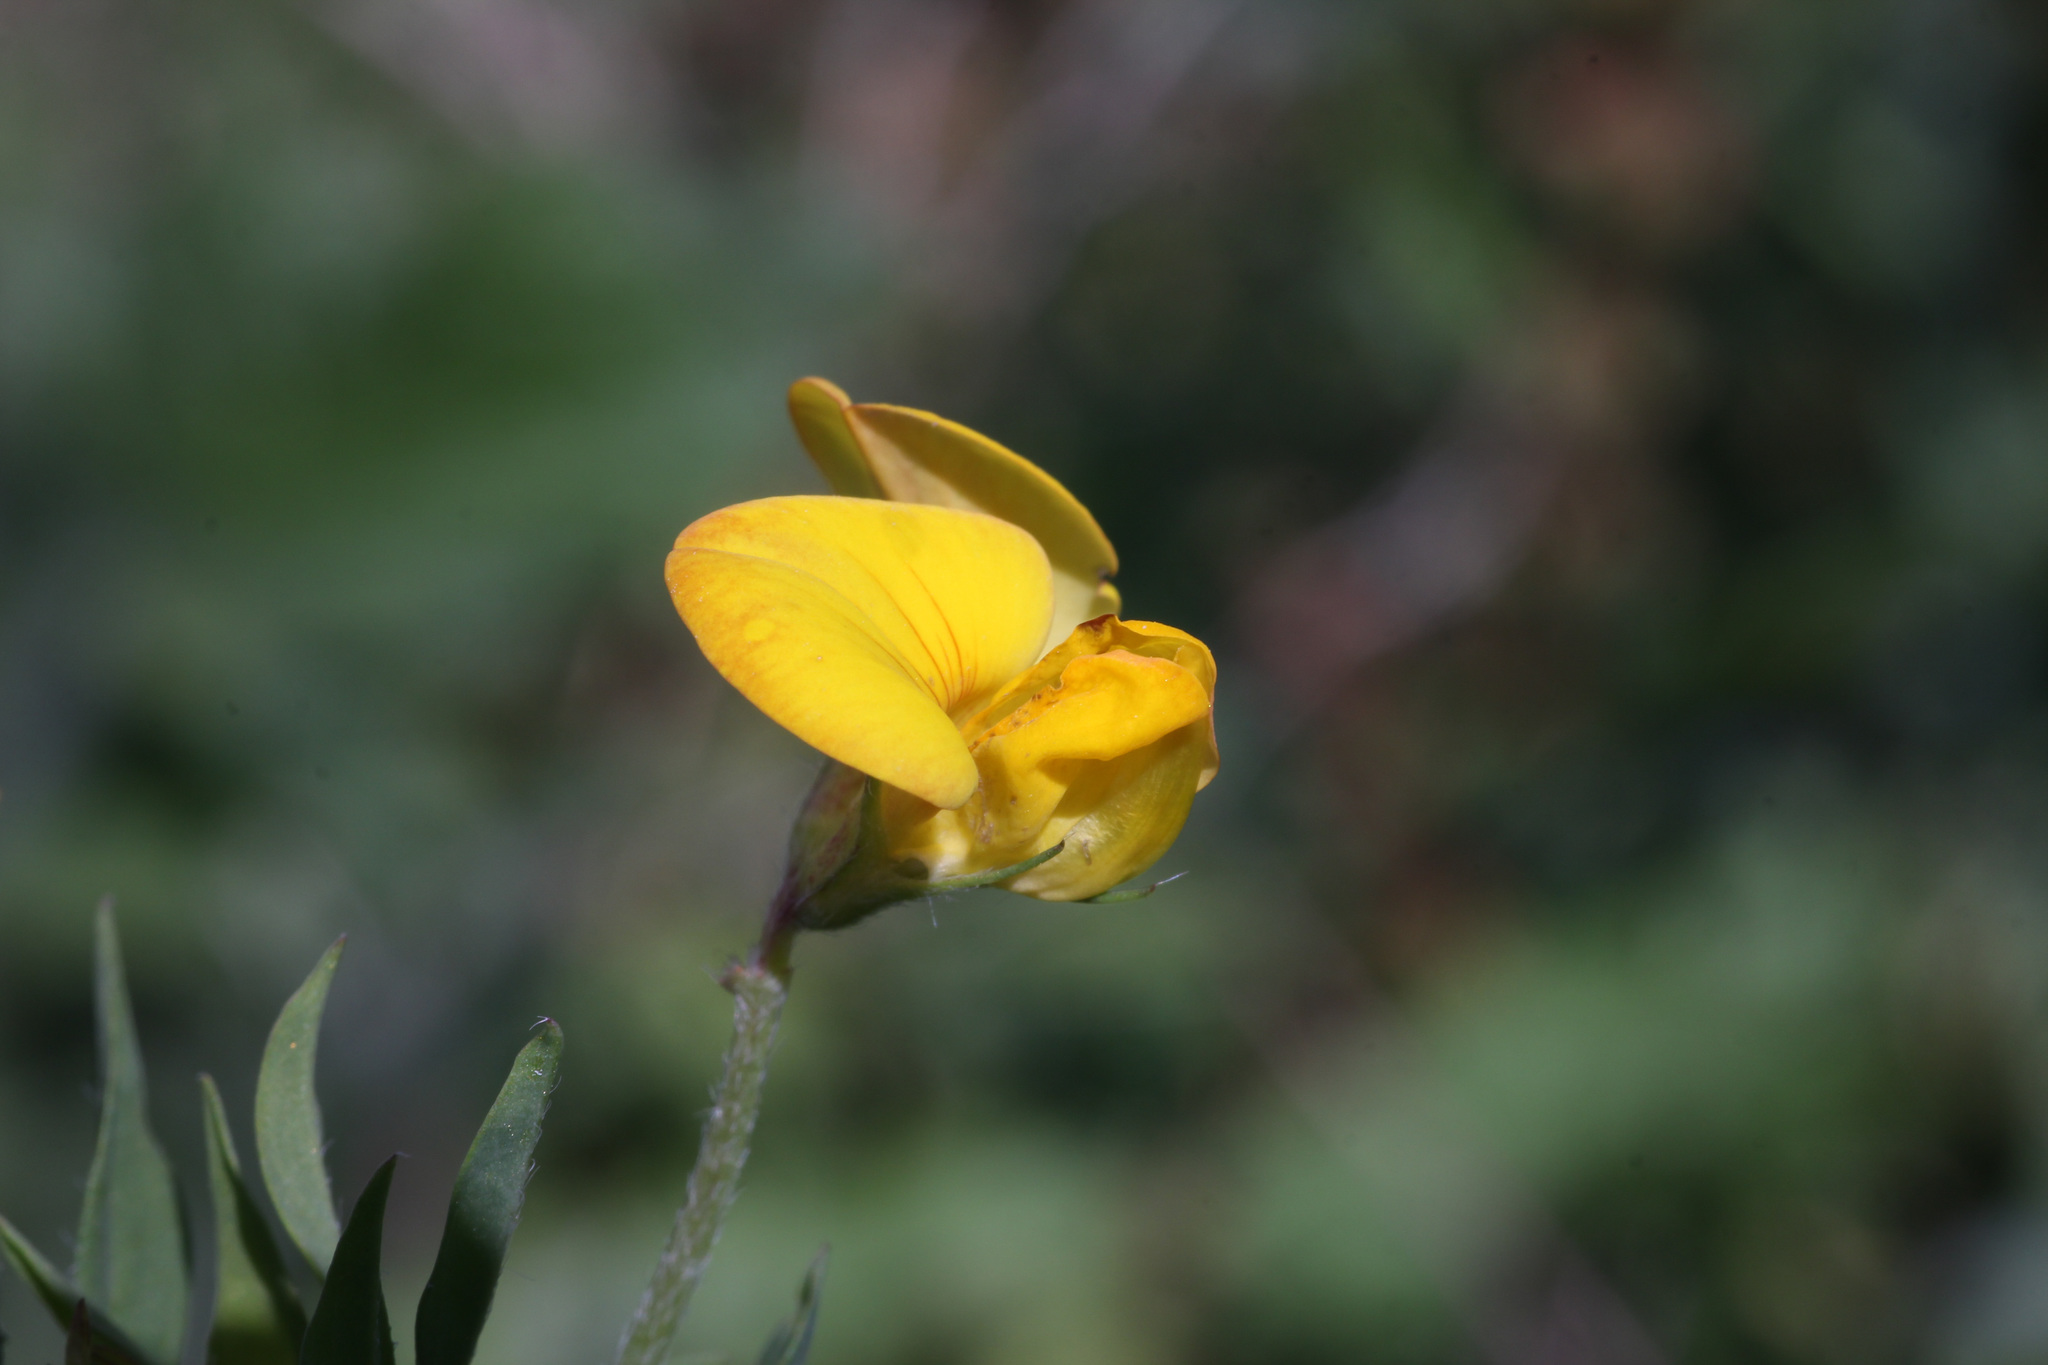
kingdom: Plantae
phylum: Tracheophyta
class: Magnoliopsida
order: Fabales
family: Fabaceae
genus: Lotus
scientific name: Lotus corniculatus
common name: Common bird's-foot-trefoil
